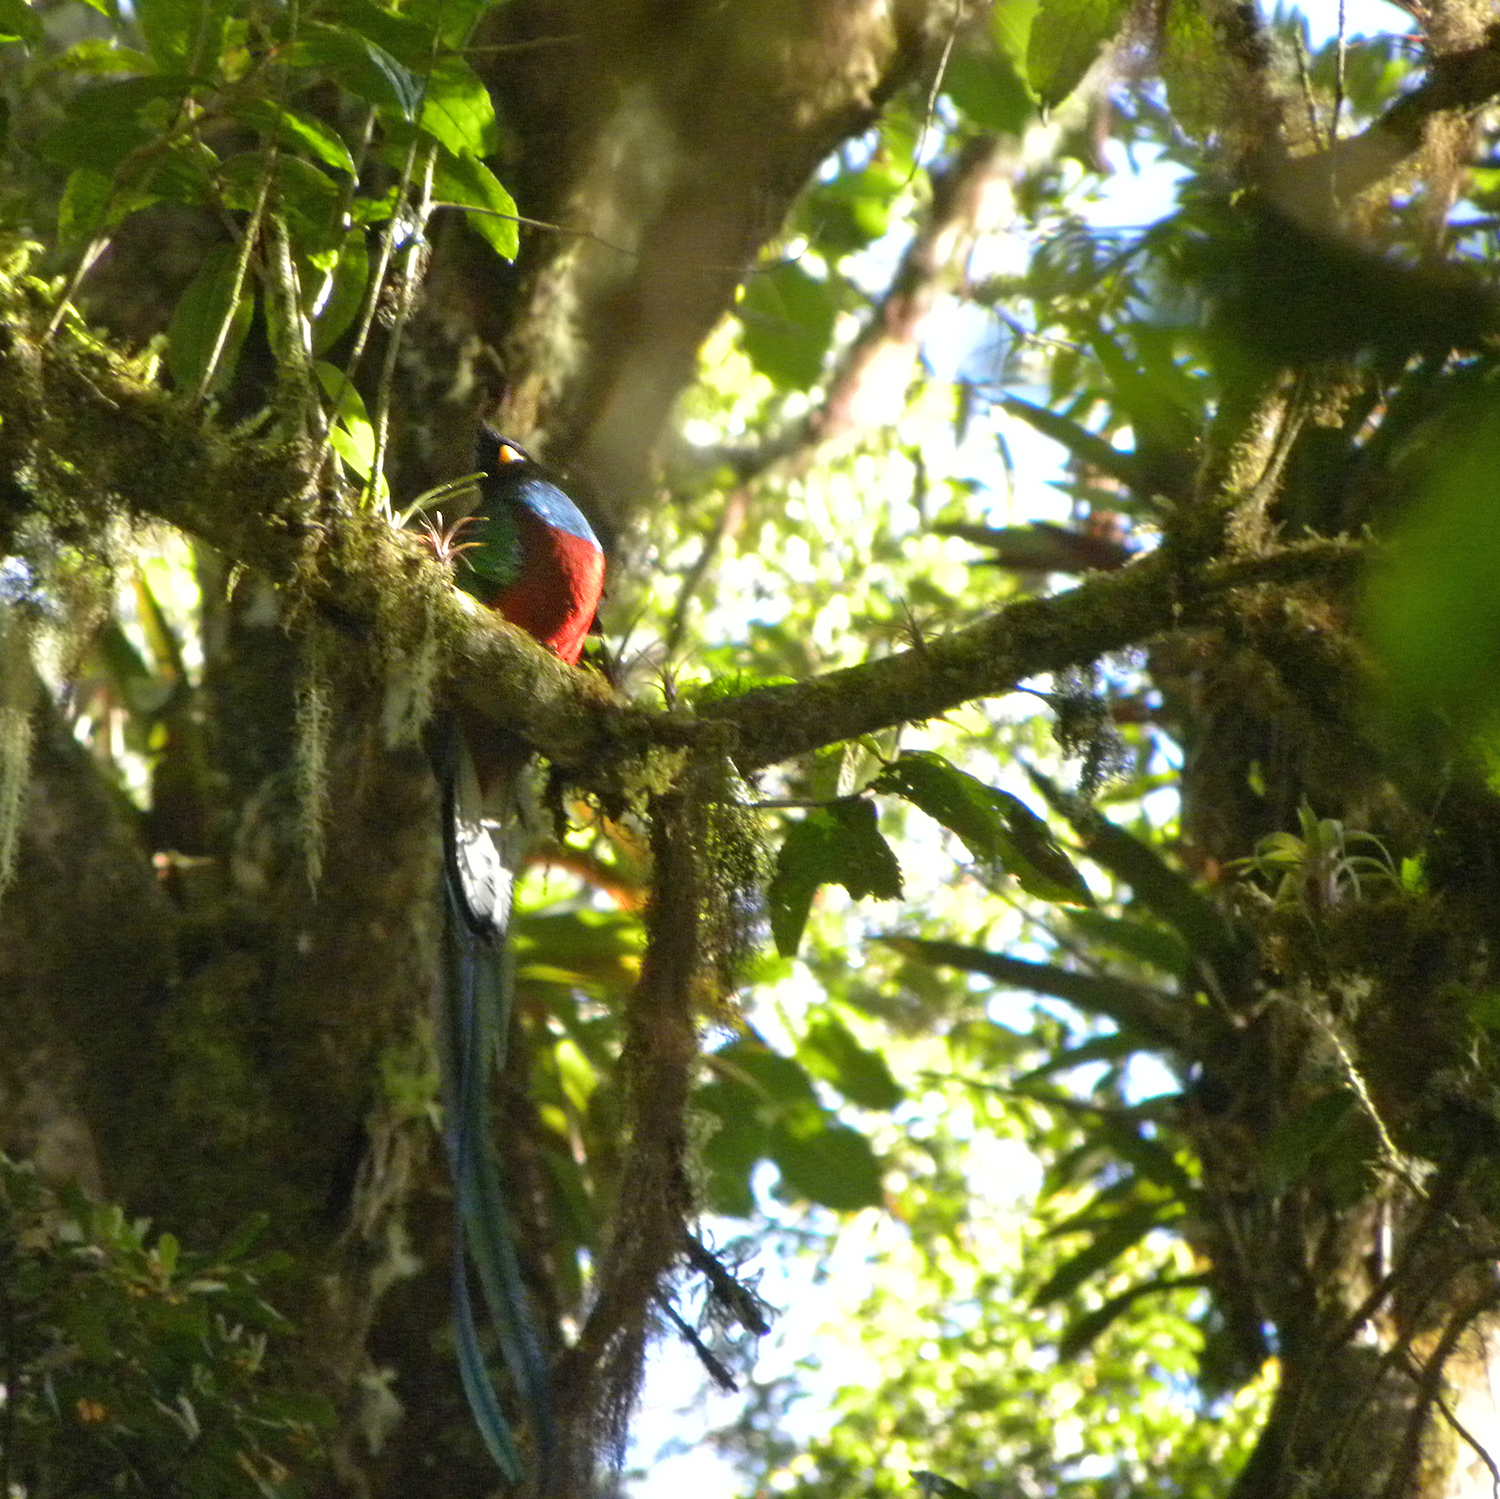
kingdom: Animalia
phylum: Chordata
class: Aves
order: Trogoniformes
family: Trogonidae
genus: Pharomachrus
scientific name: Pharomachrus mocinno
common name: Resplendent quetzal
